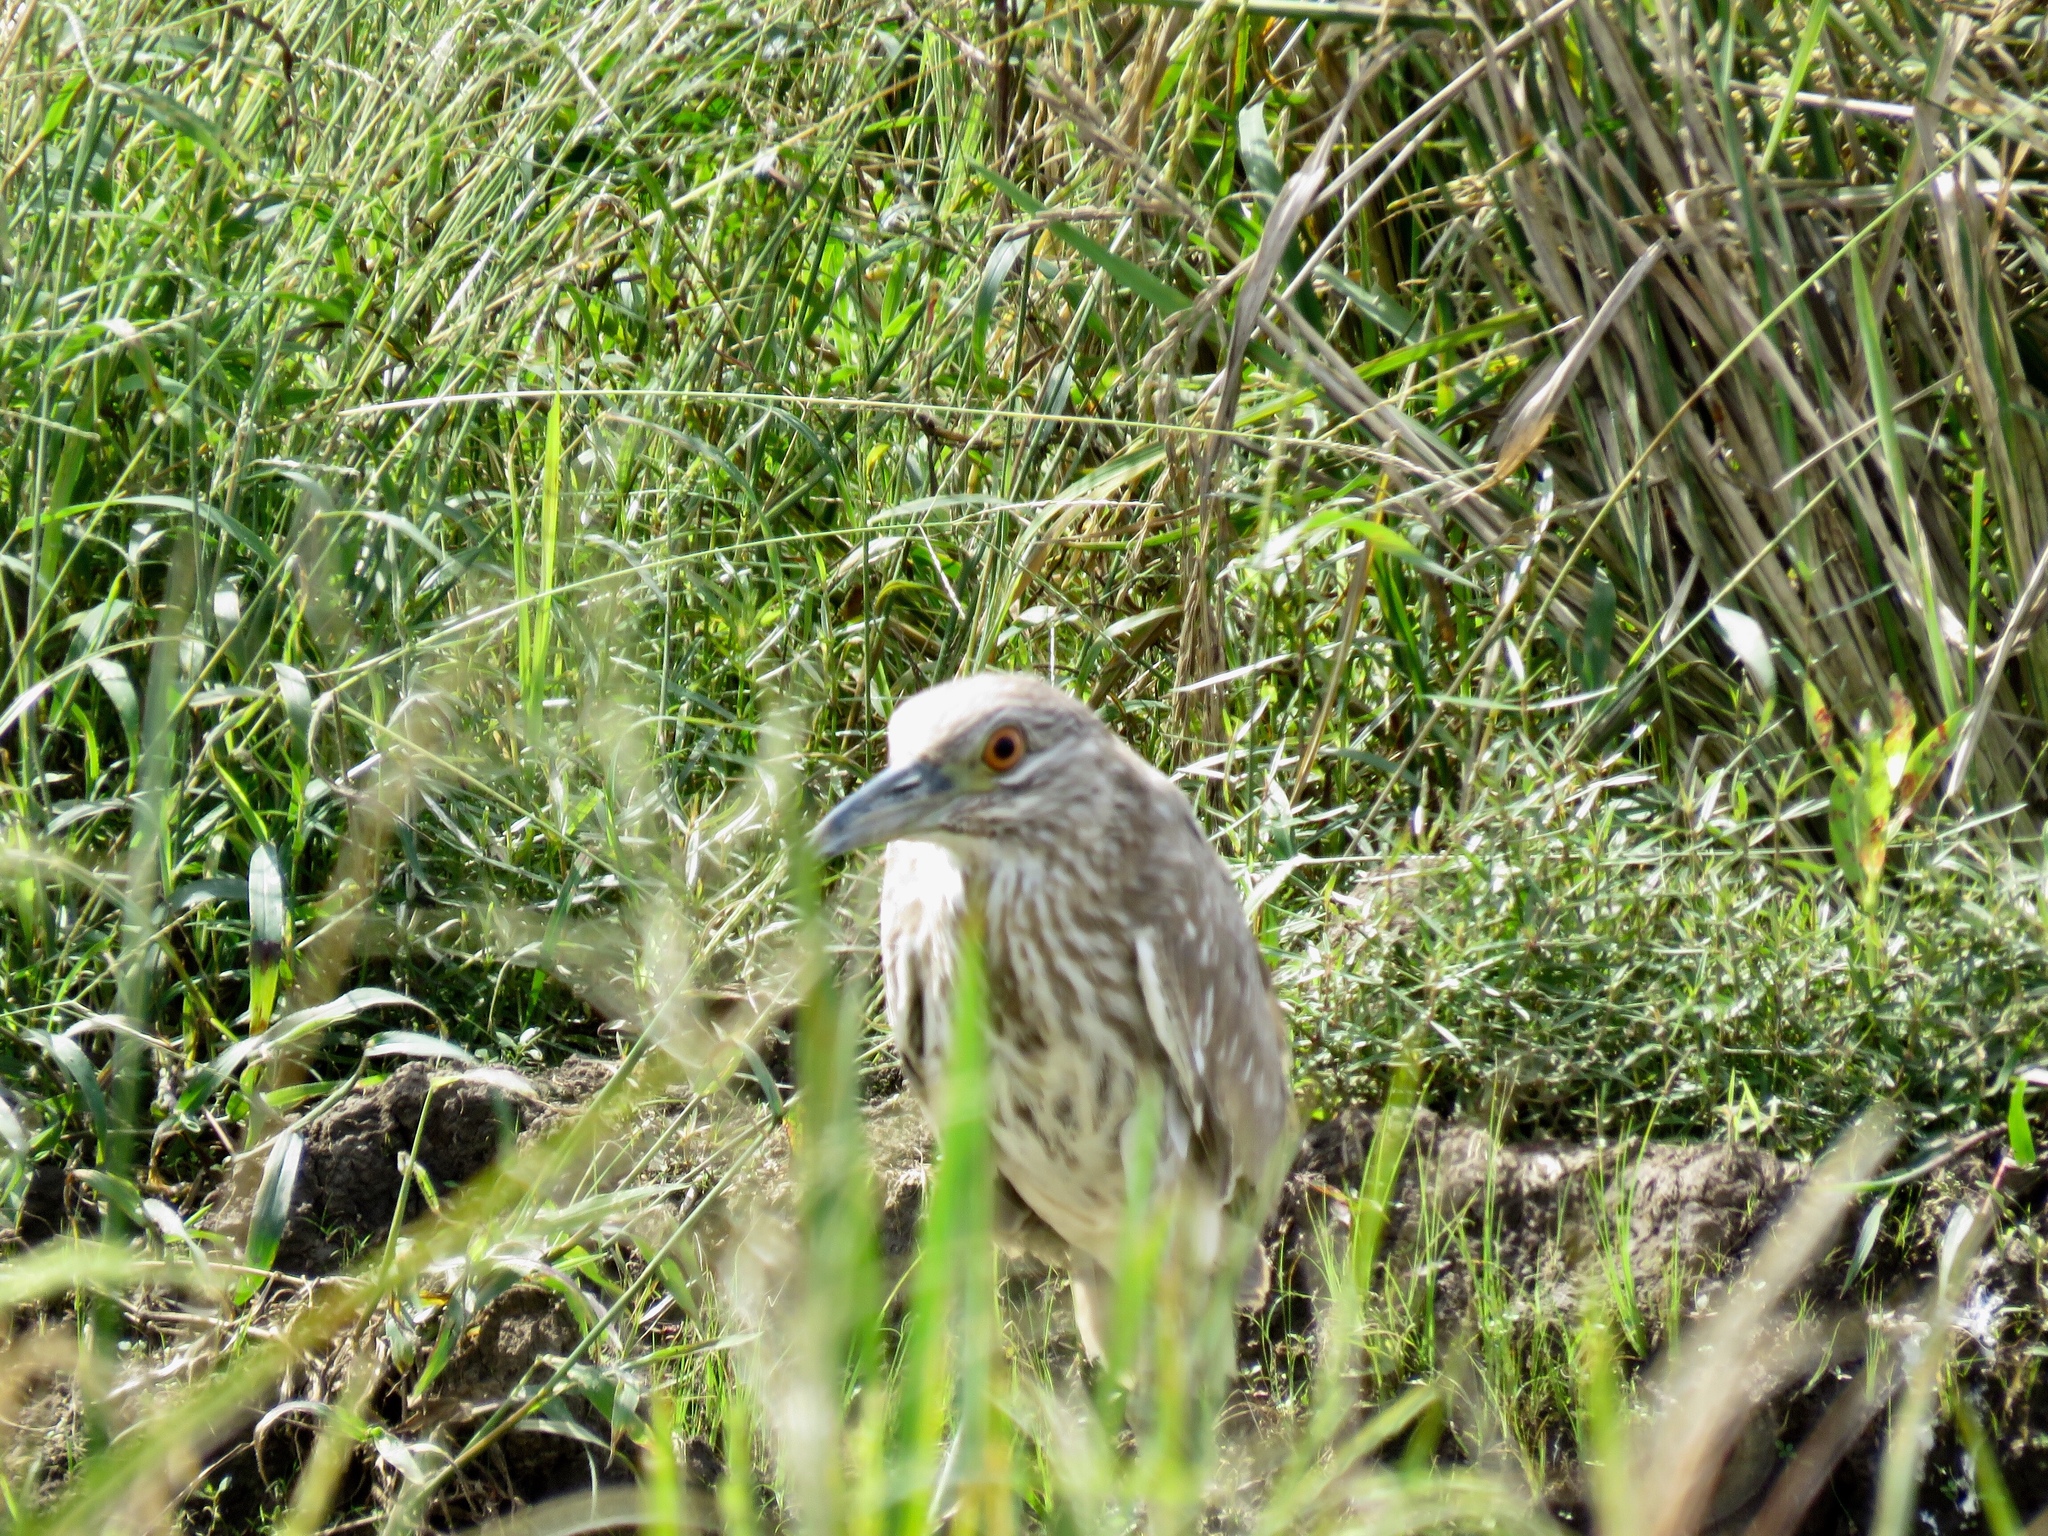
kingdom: Animalia
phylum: Chordata
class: Aves
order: Pelecaniformes
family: Ardeidae
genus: Nycticorax
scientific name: Nycticorax nycticorax
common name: Black-crowned night heron
